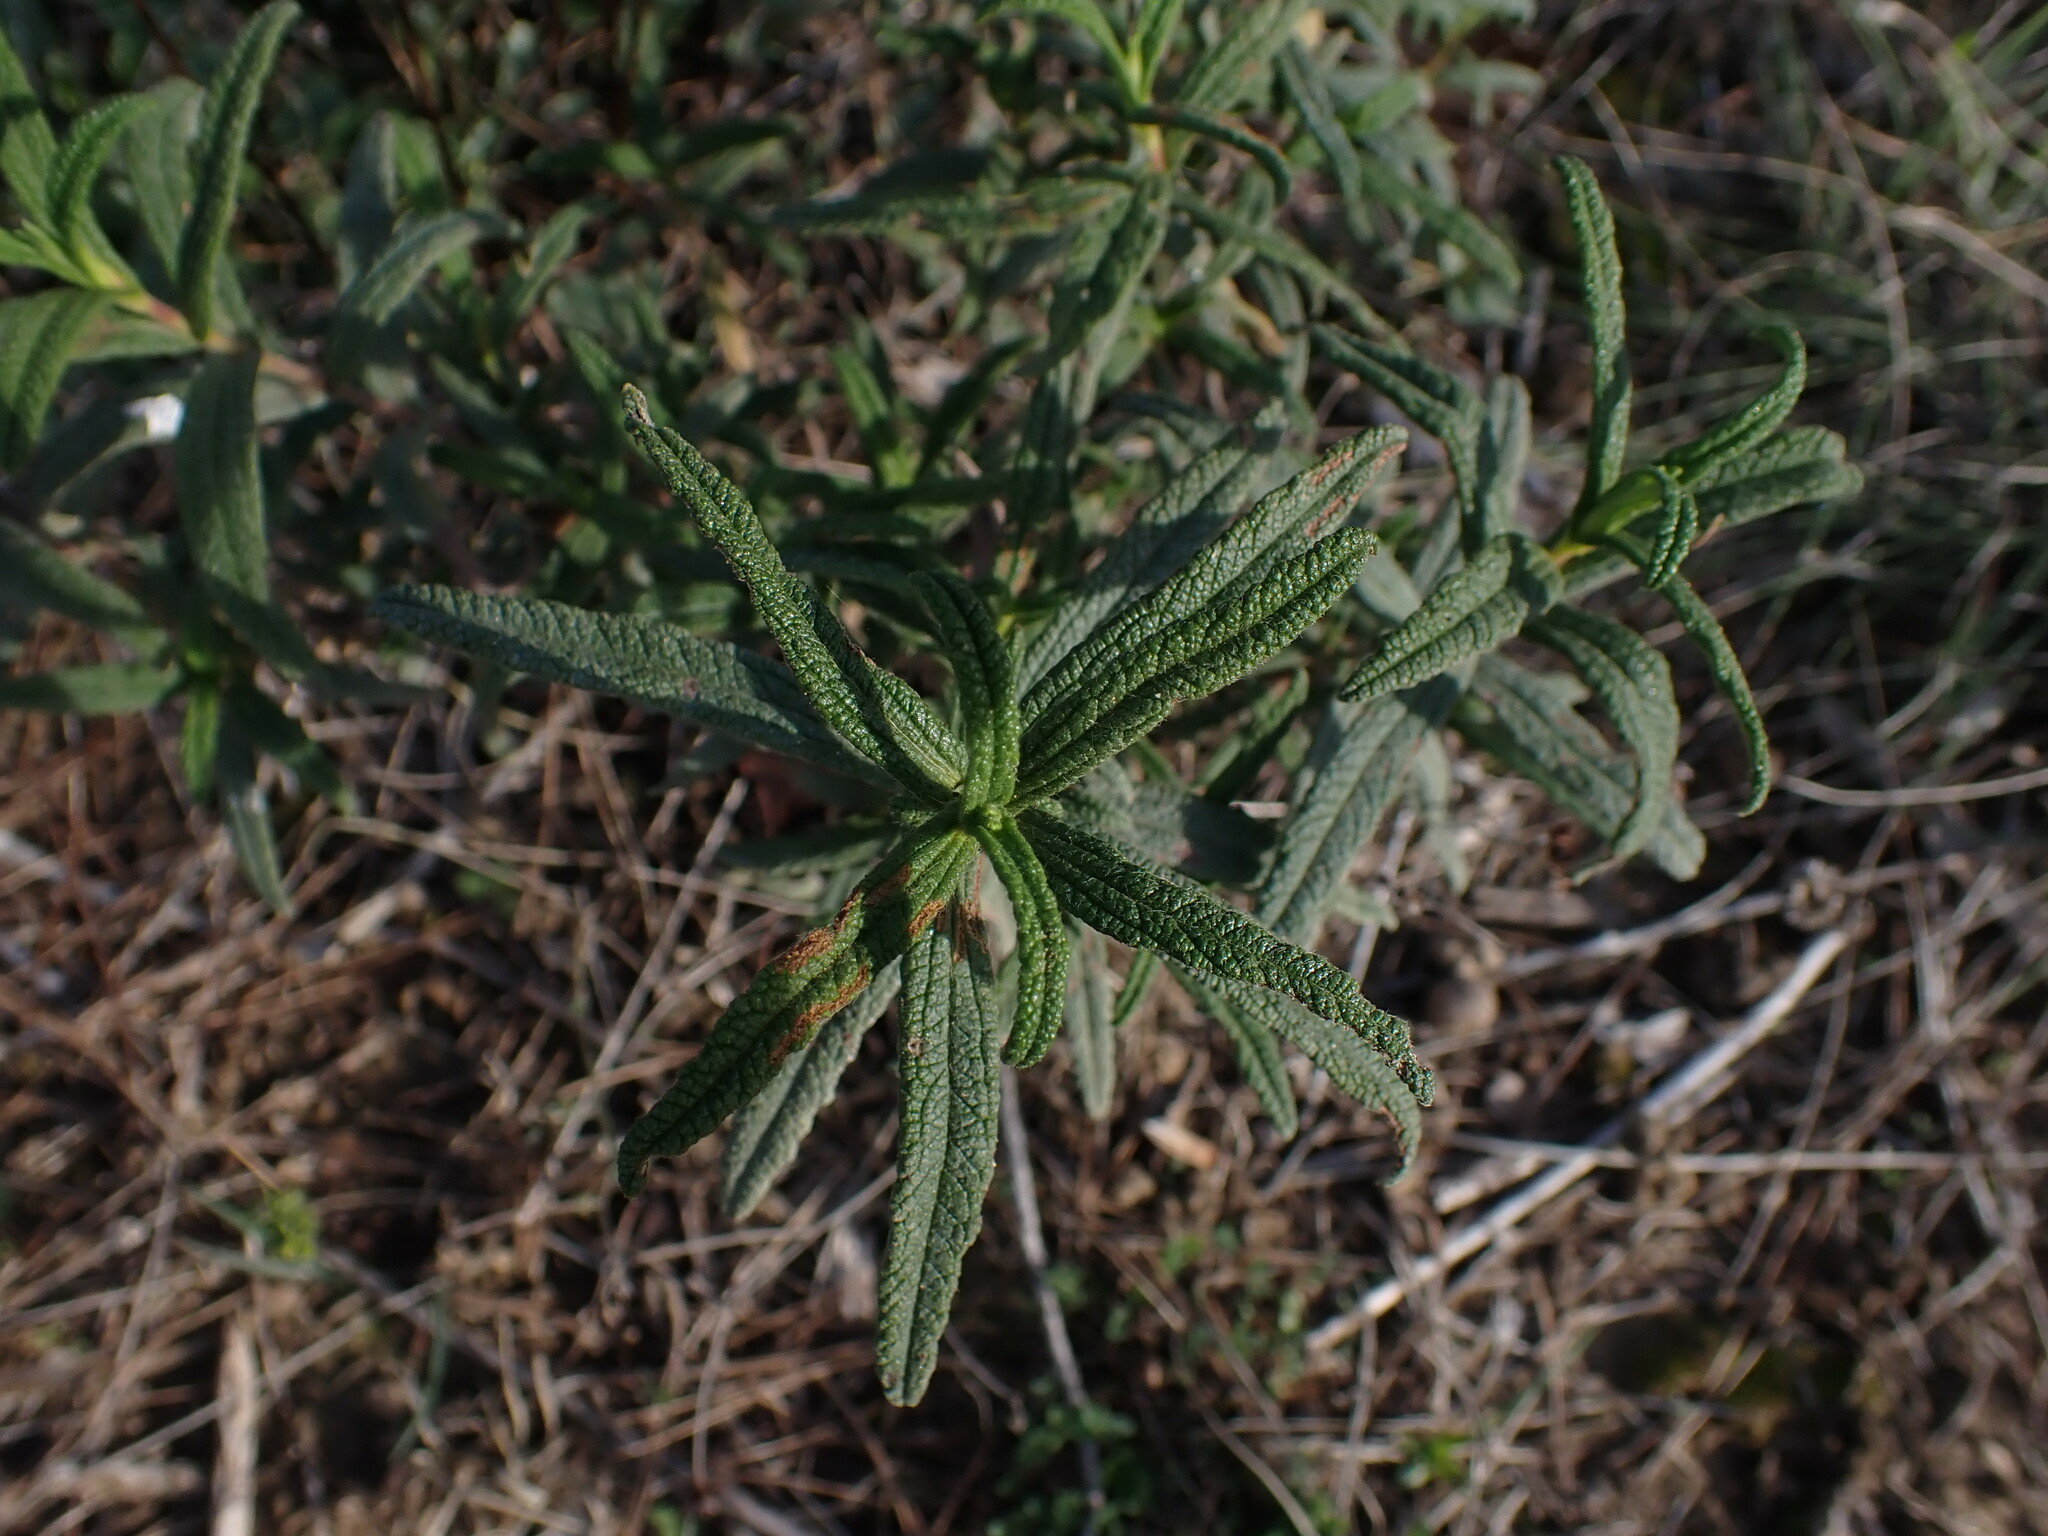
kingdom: Plantae
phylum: Tracheophyta
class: Magnoliopsida
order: Malvales
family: Cistaceae
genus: Cistus
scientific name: Cistus monspeliensis
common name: Montpelier cistus
